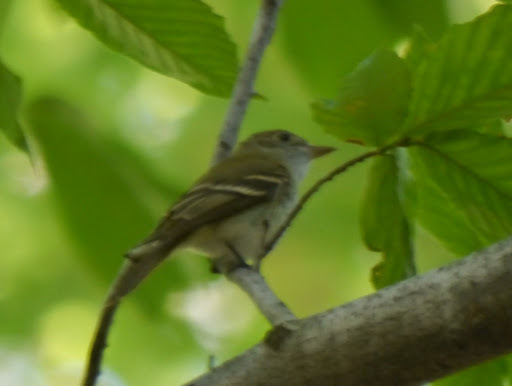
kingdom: Animalia
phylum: Chordata
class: Aves
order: Passeriformes
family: Tyrannidae
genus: Empidonax
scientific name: Empidonax virescens
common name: Acadian flycatcher
